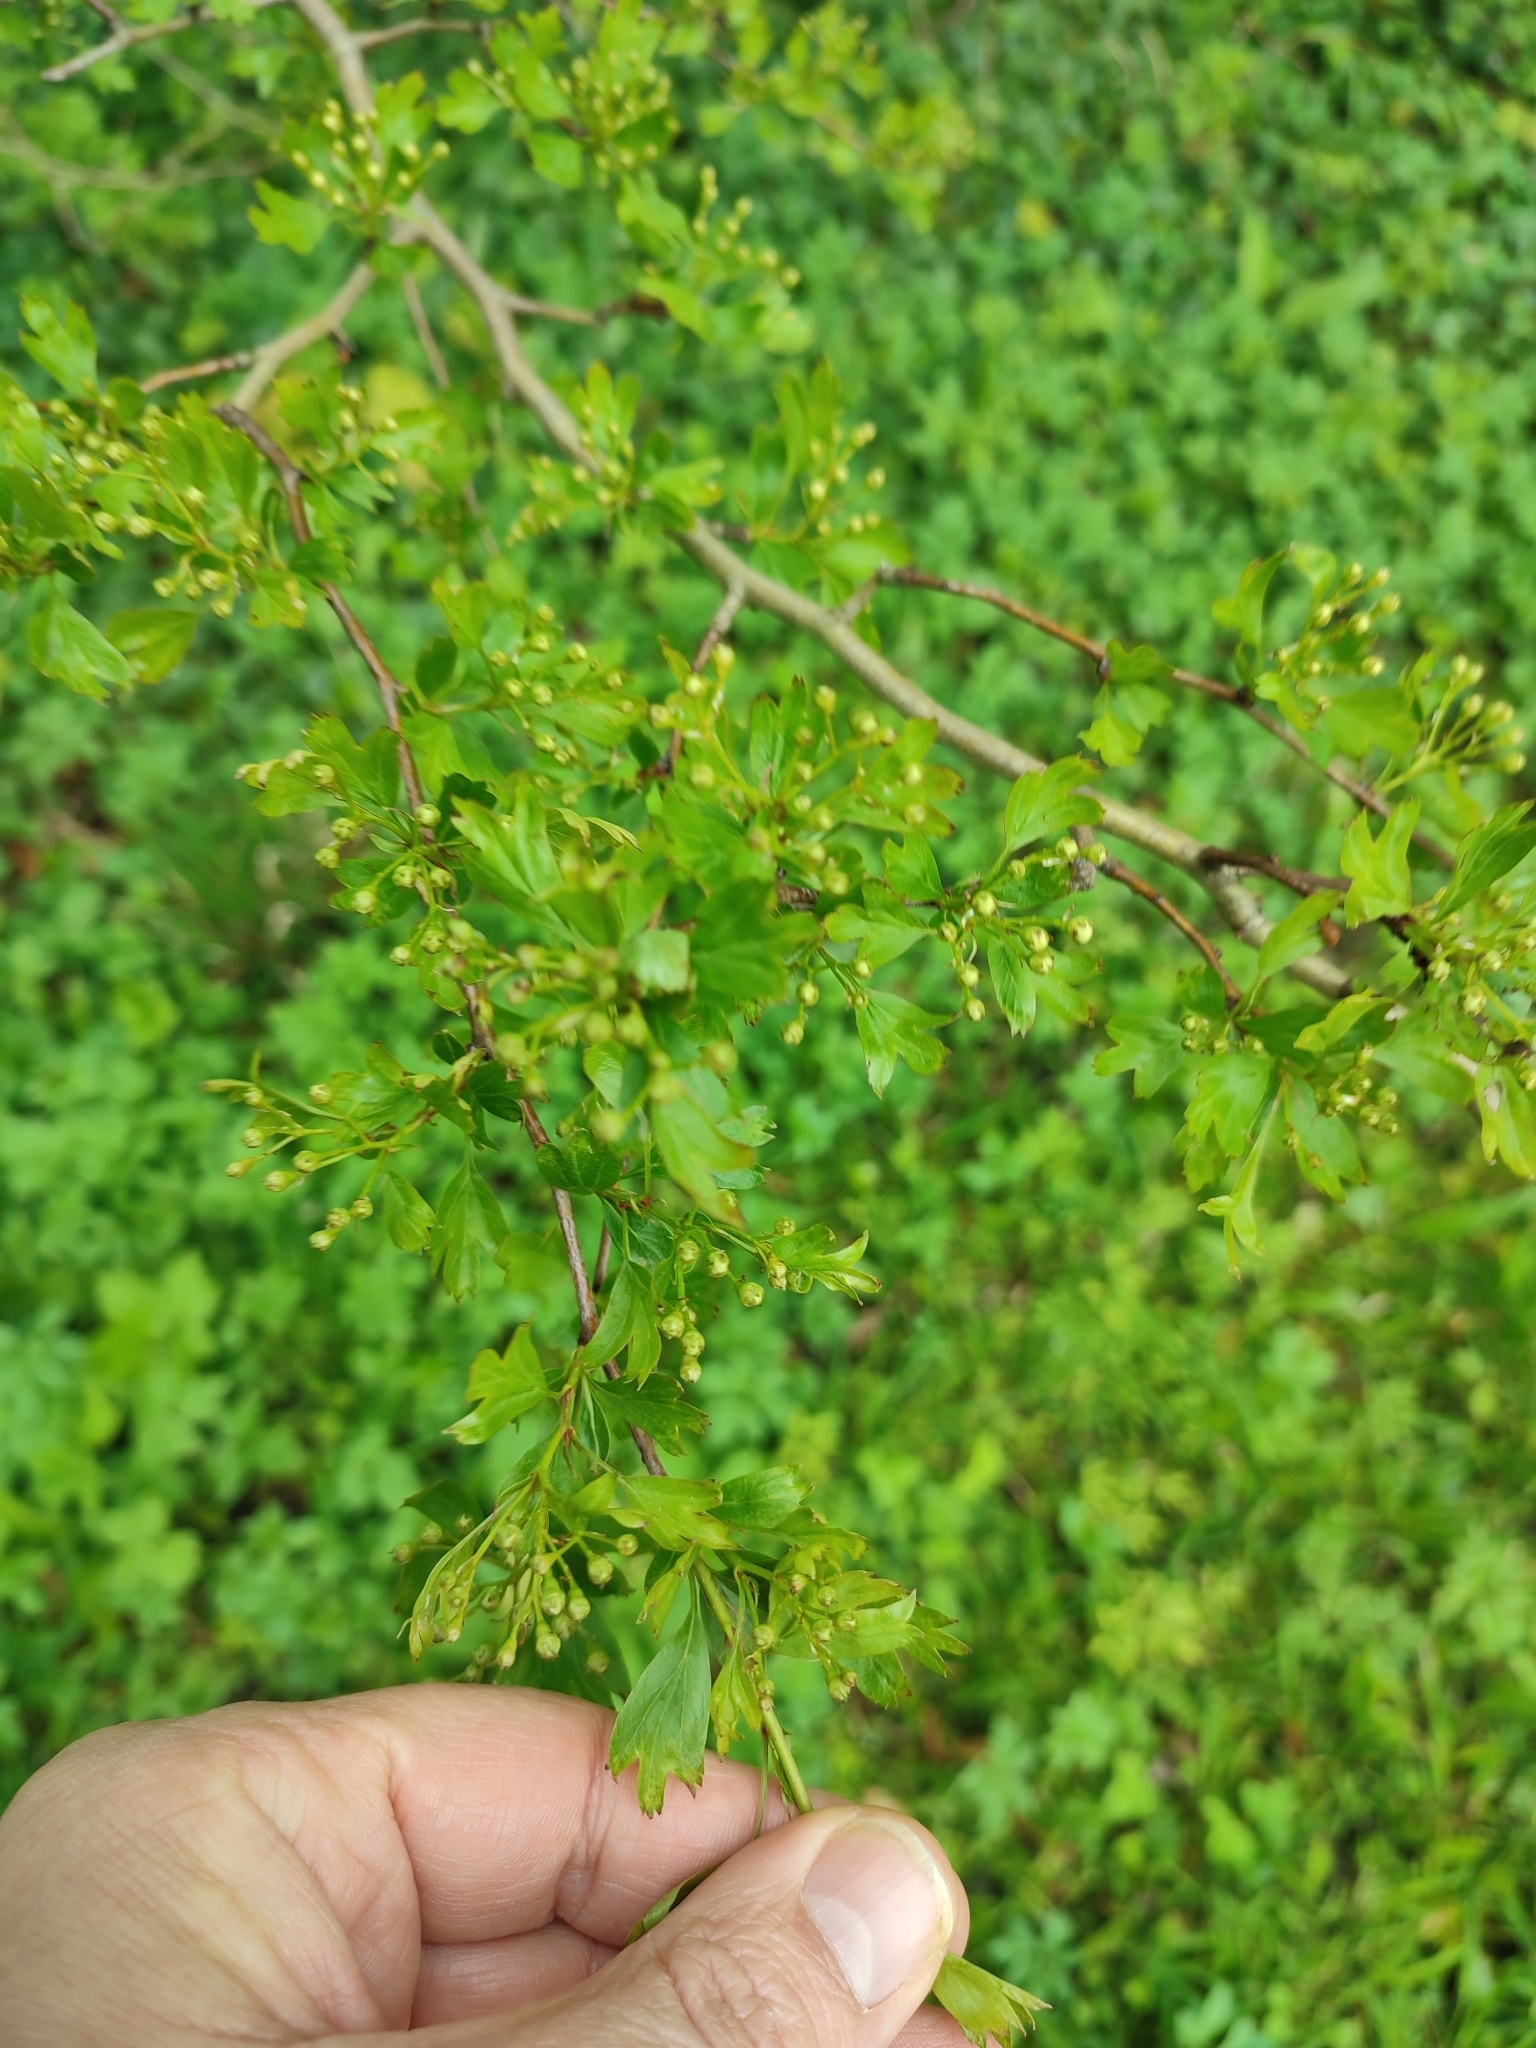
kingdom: Plantae
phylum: Tracheophyta
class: Magnoliopsida
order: Rosales
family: Rosaceae
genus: Crataegus
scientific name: Crataegus monogyna
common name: Hawthorn
